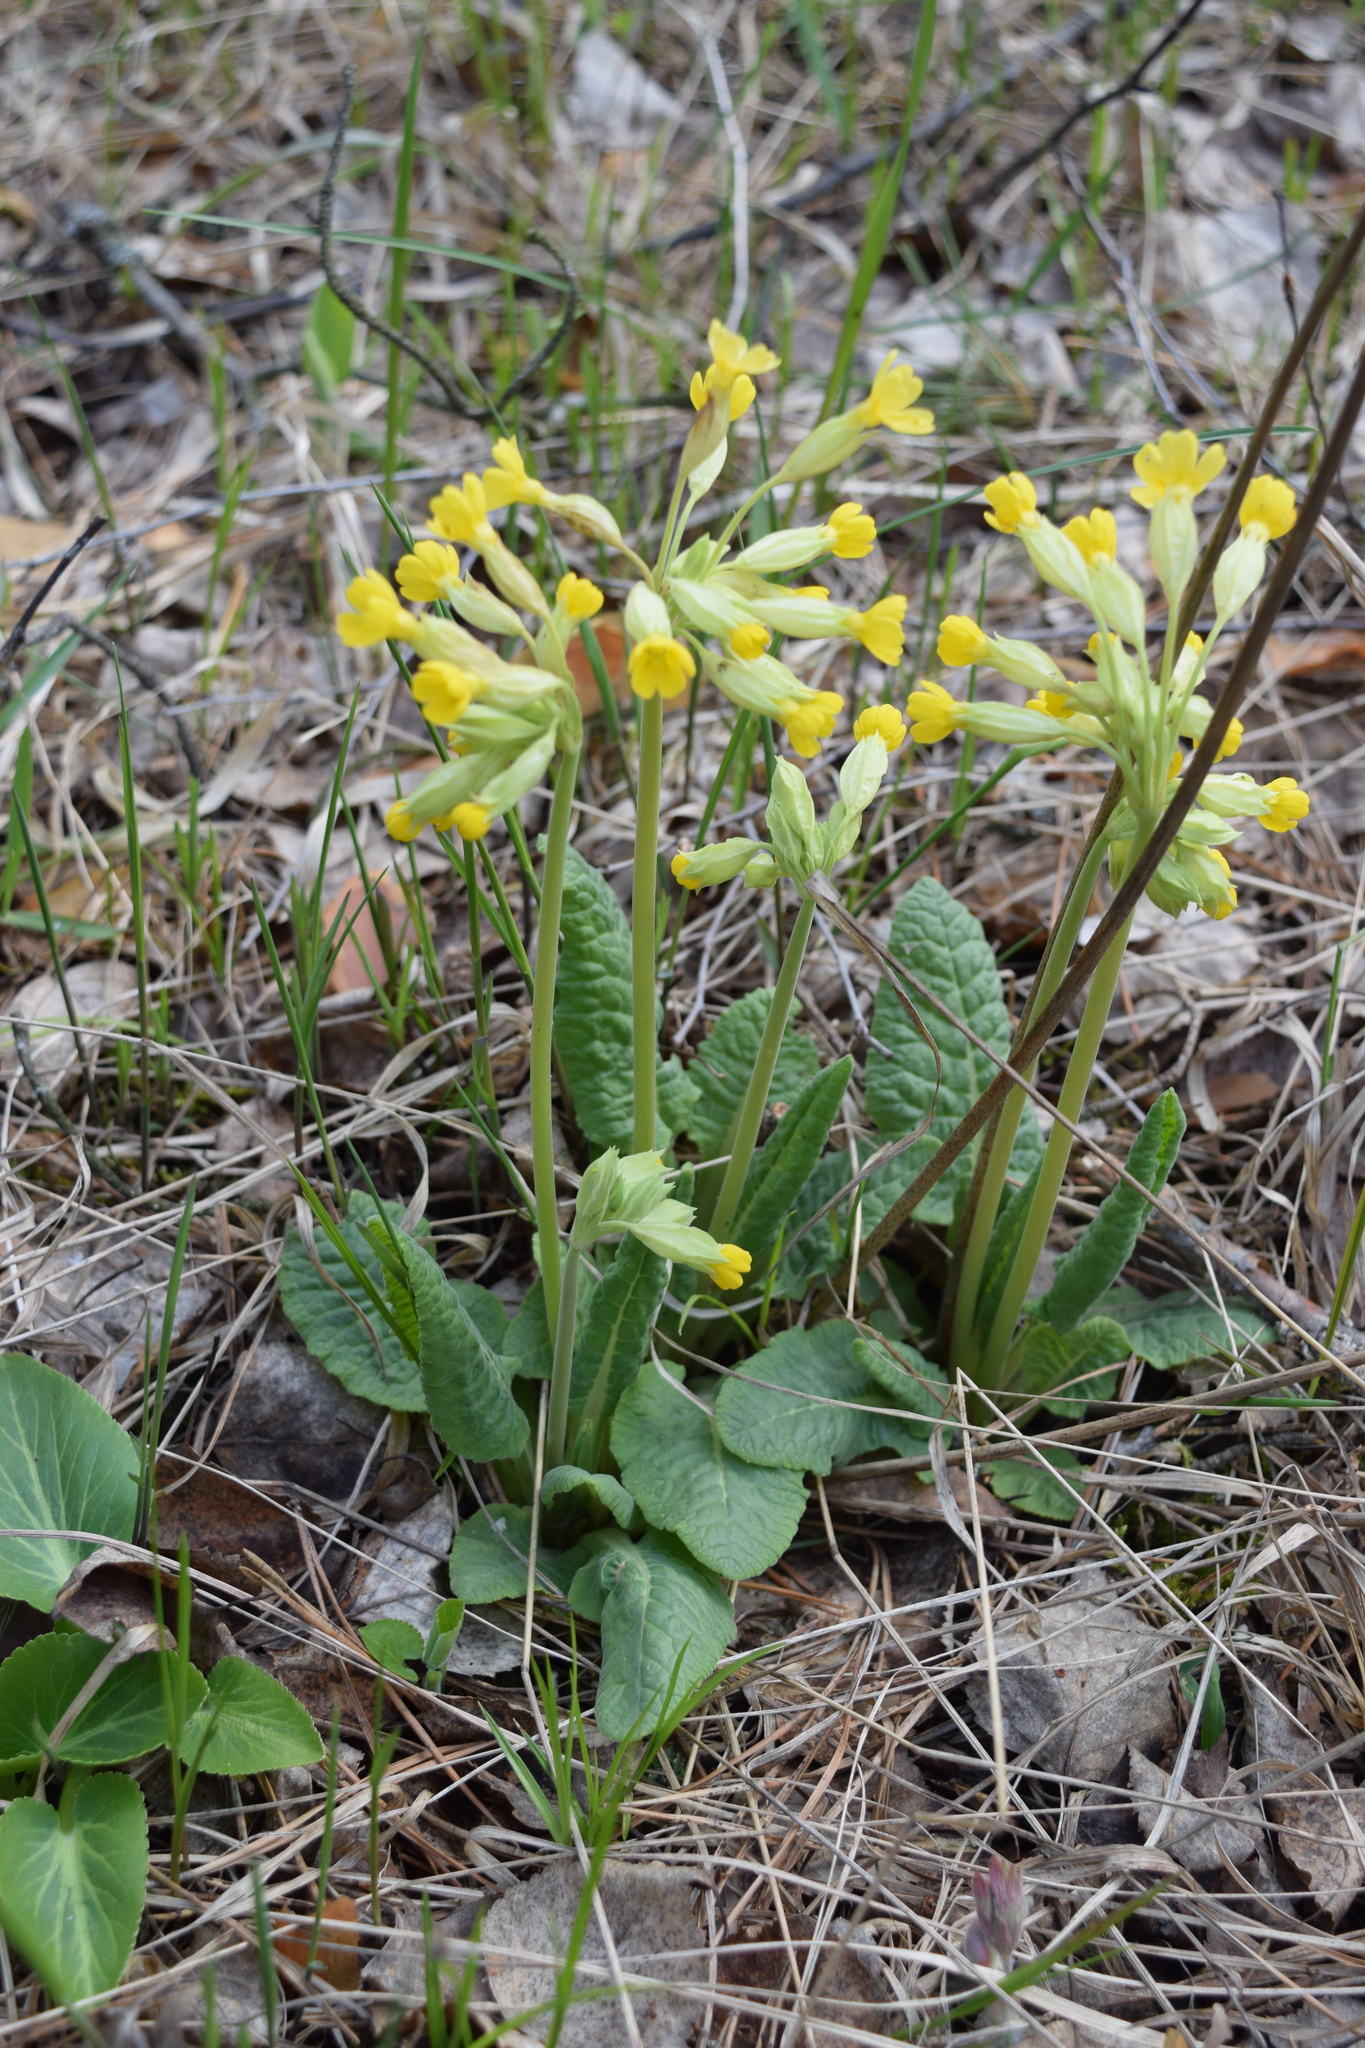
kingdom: Plantae
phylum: Tracheophyta
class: Magnoliopsida
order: Ericales
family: Primulaceae
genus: Primula
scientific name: Primula veris
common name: Cowslip
